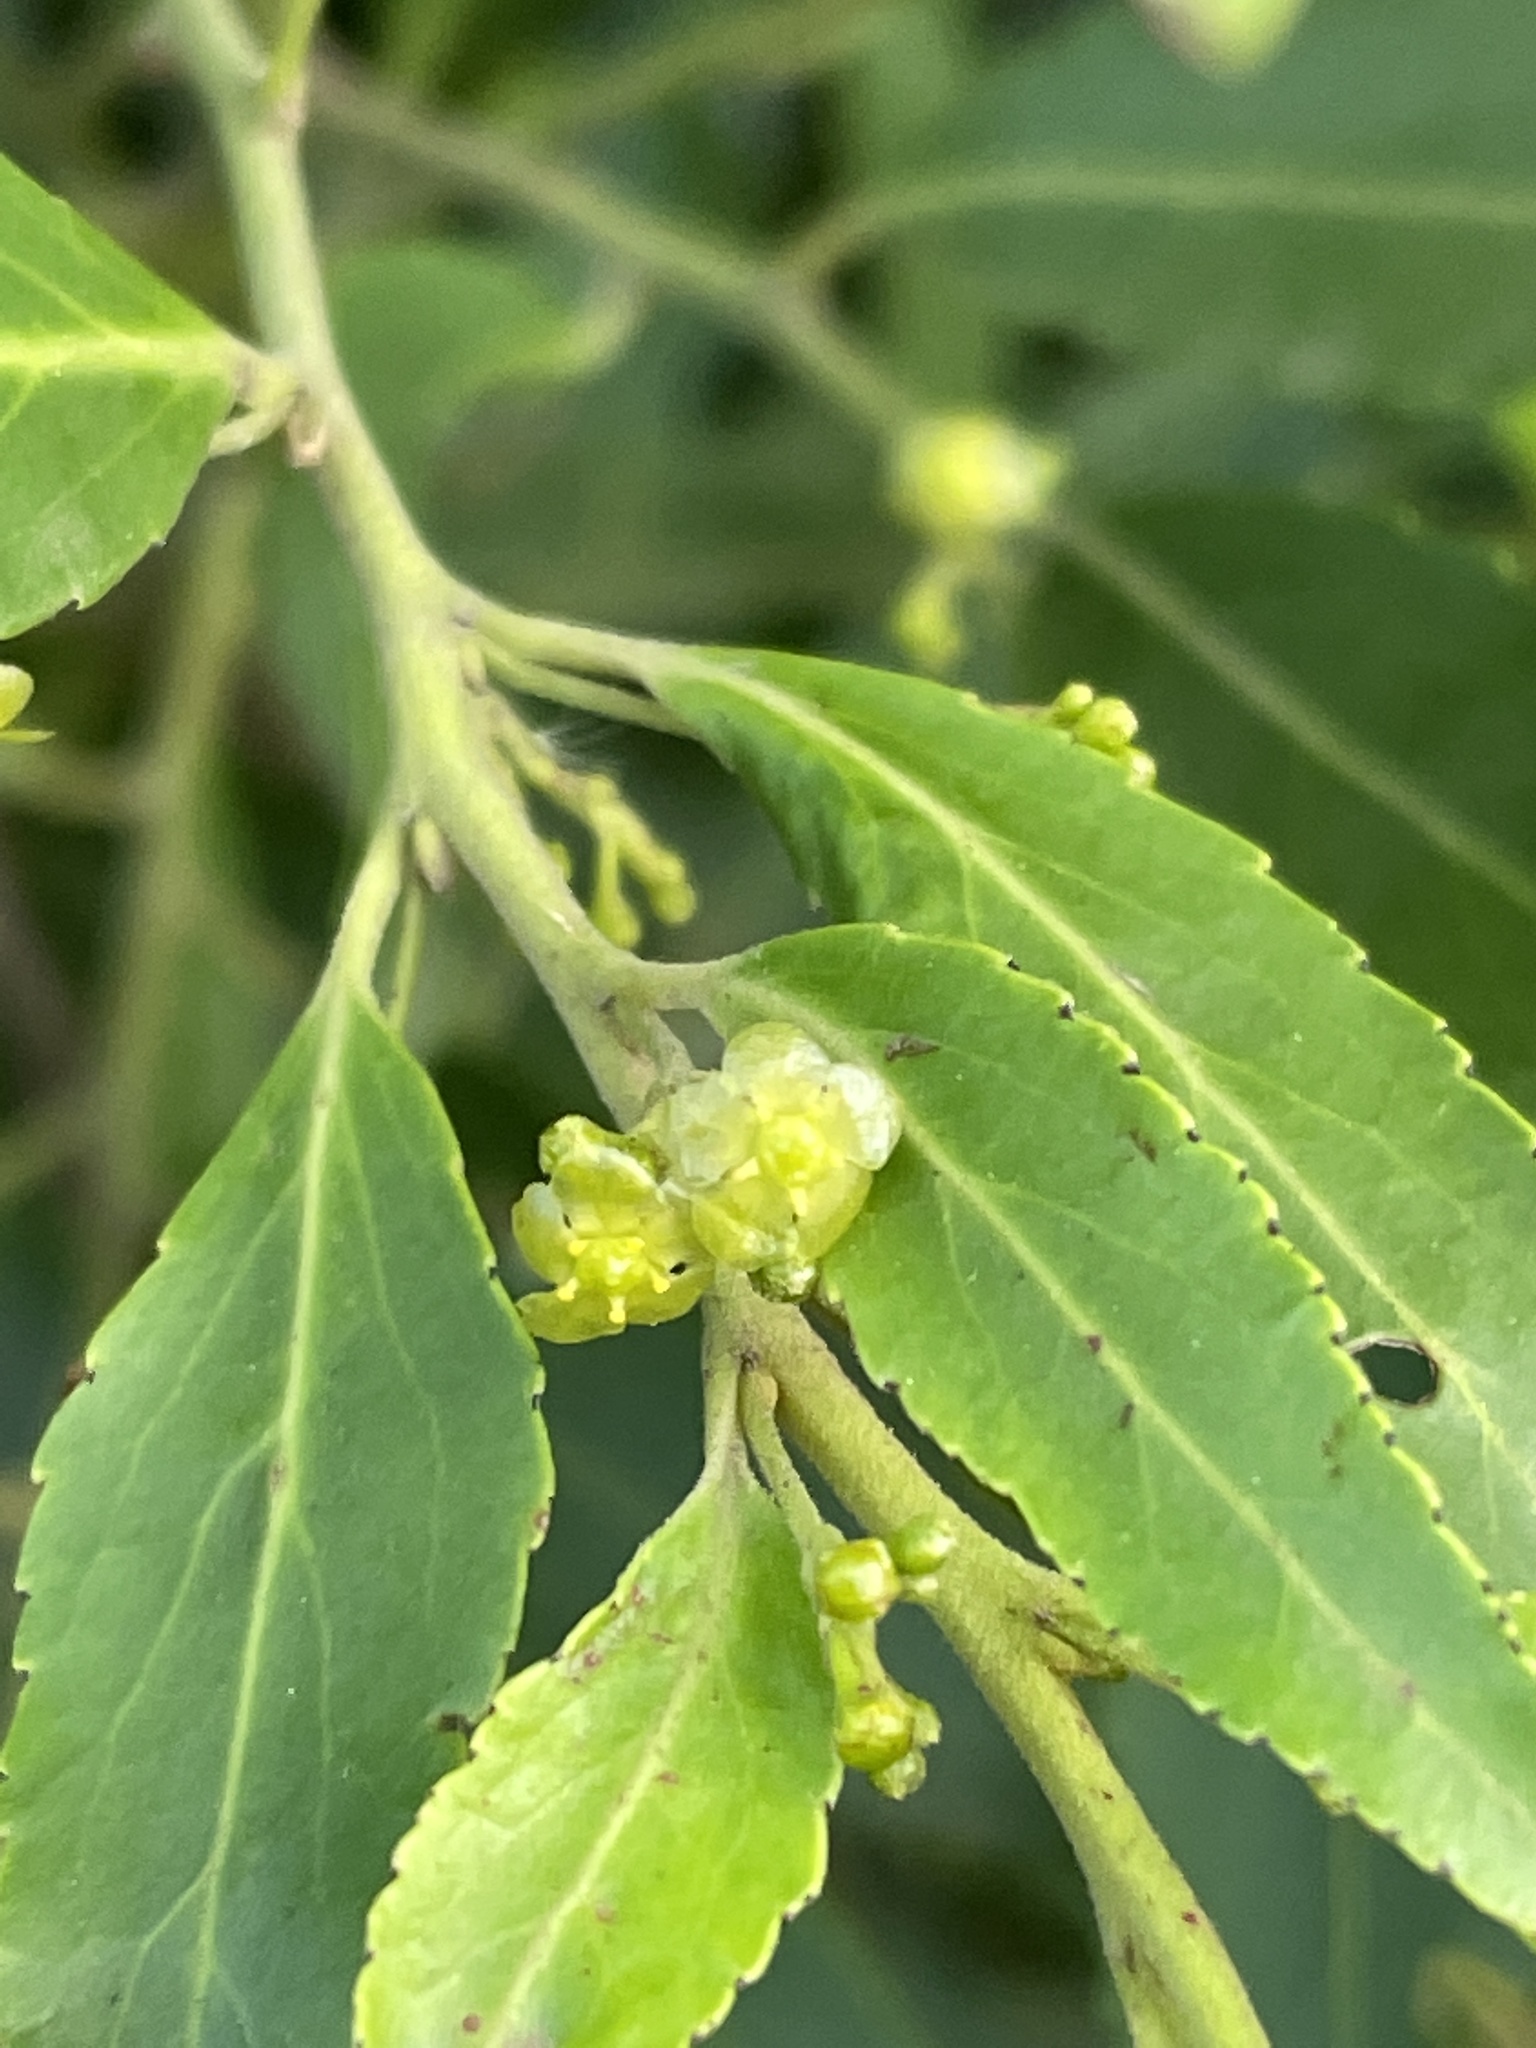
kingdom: Plantae
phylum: Tracheophyta
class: Magnoliopsida
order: Celastrales
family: Celastraceae
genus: Gymnosporia
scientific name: Gymnosporia peduncularis
